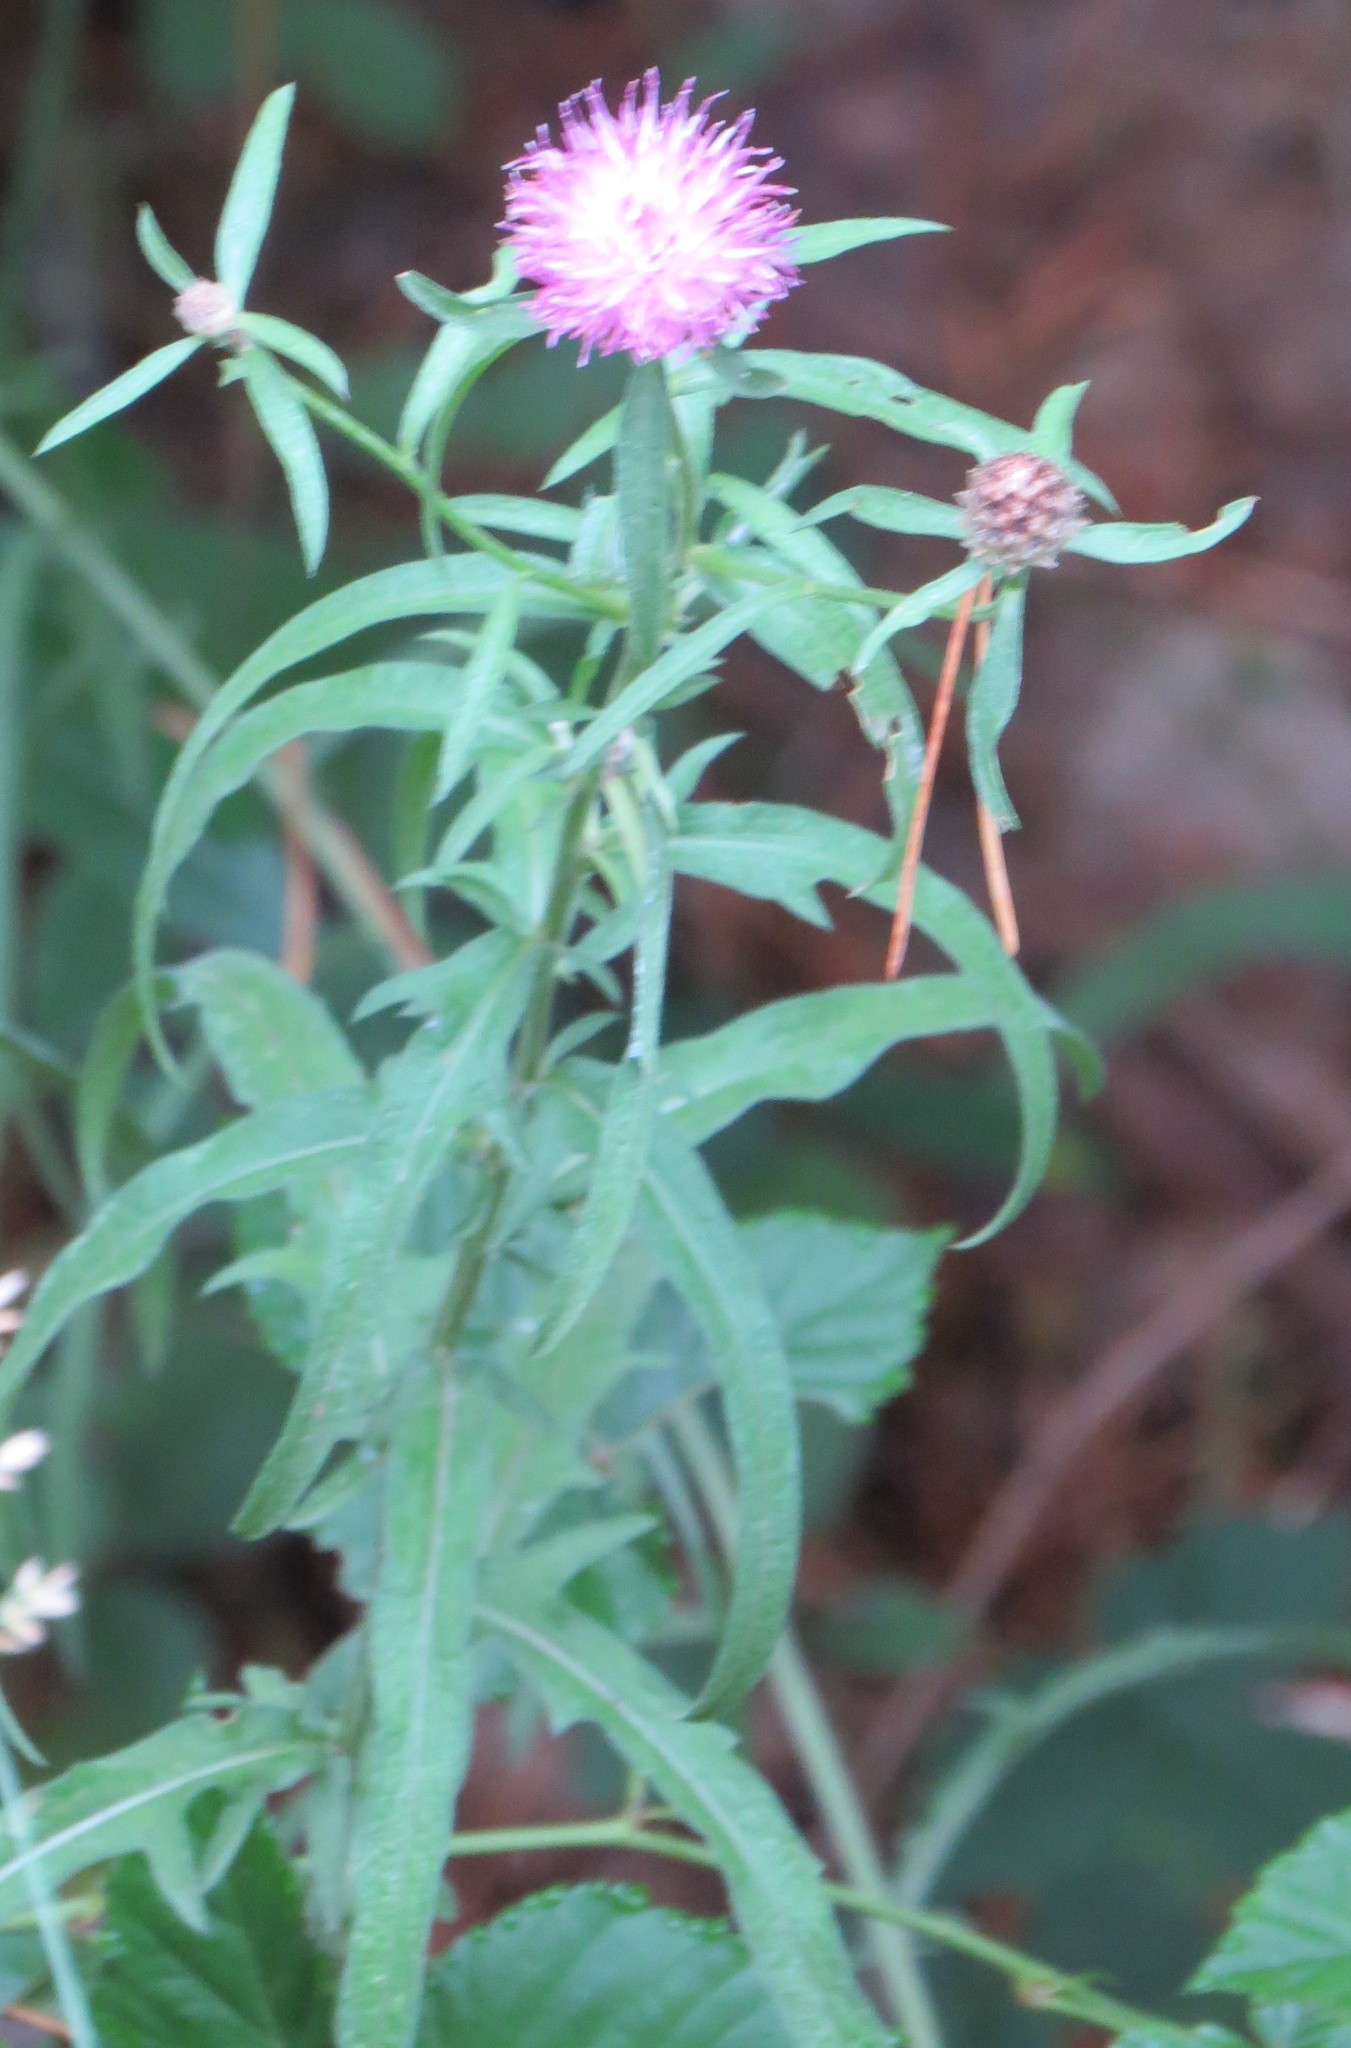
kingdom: Plantae
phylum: Tracheophyta
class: Magnoliopsida
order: Asterales
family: Asteraceae
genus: Centaurea
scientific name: Centaurea nigra
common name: Lesser knapweed
